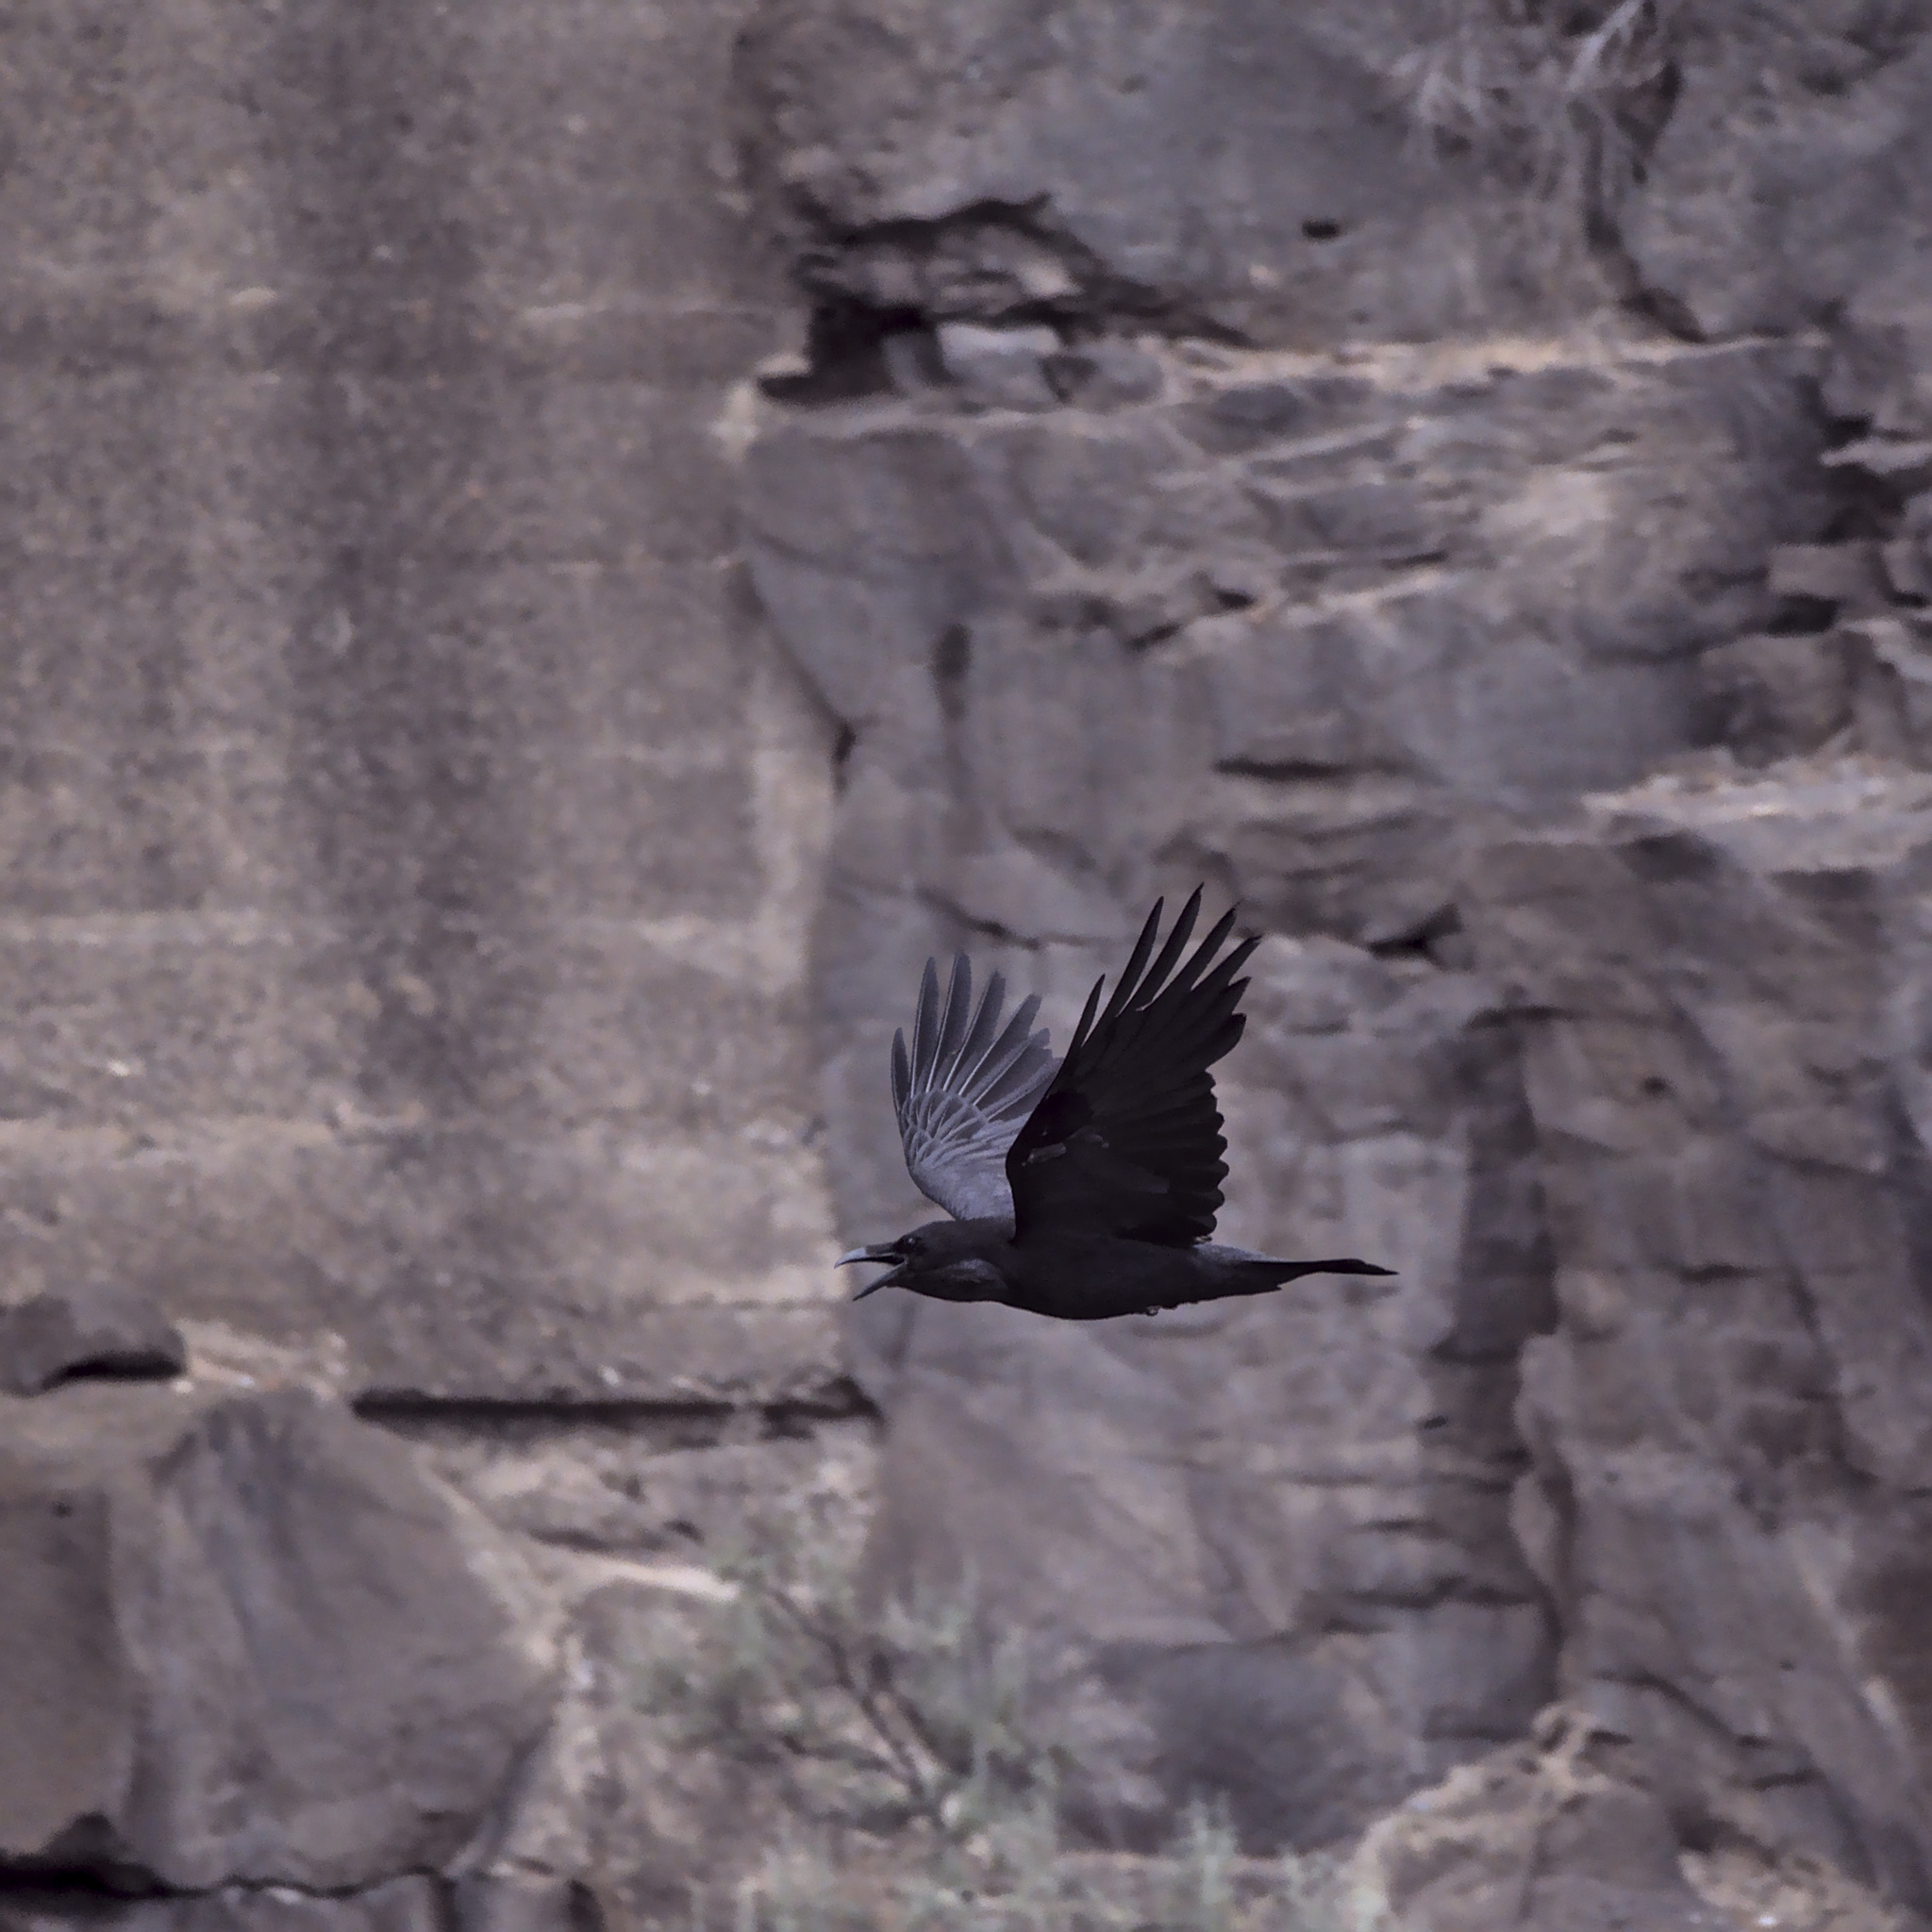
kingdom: Animalia
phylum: Chordata
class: Aves
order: Passeriformes
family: Corvidae
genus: Corvus
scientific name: Corvus corax
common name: Common raven
